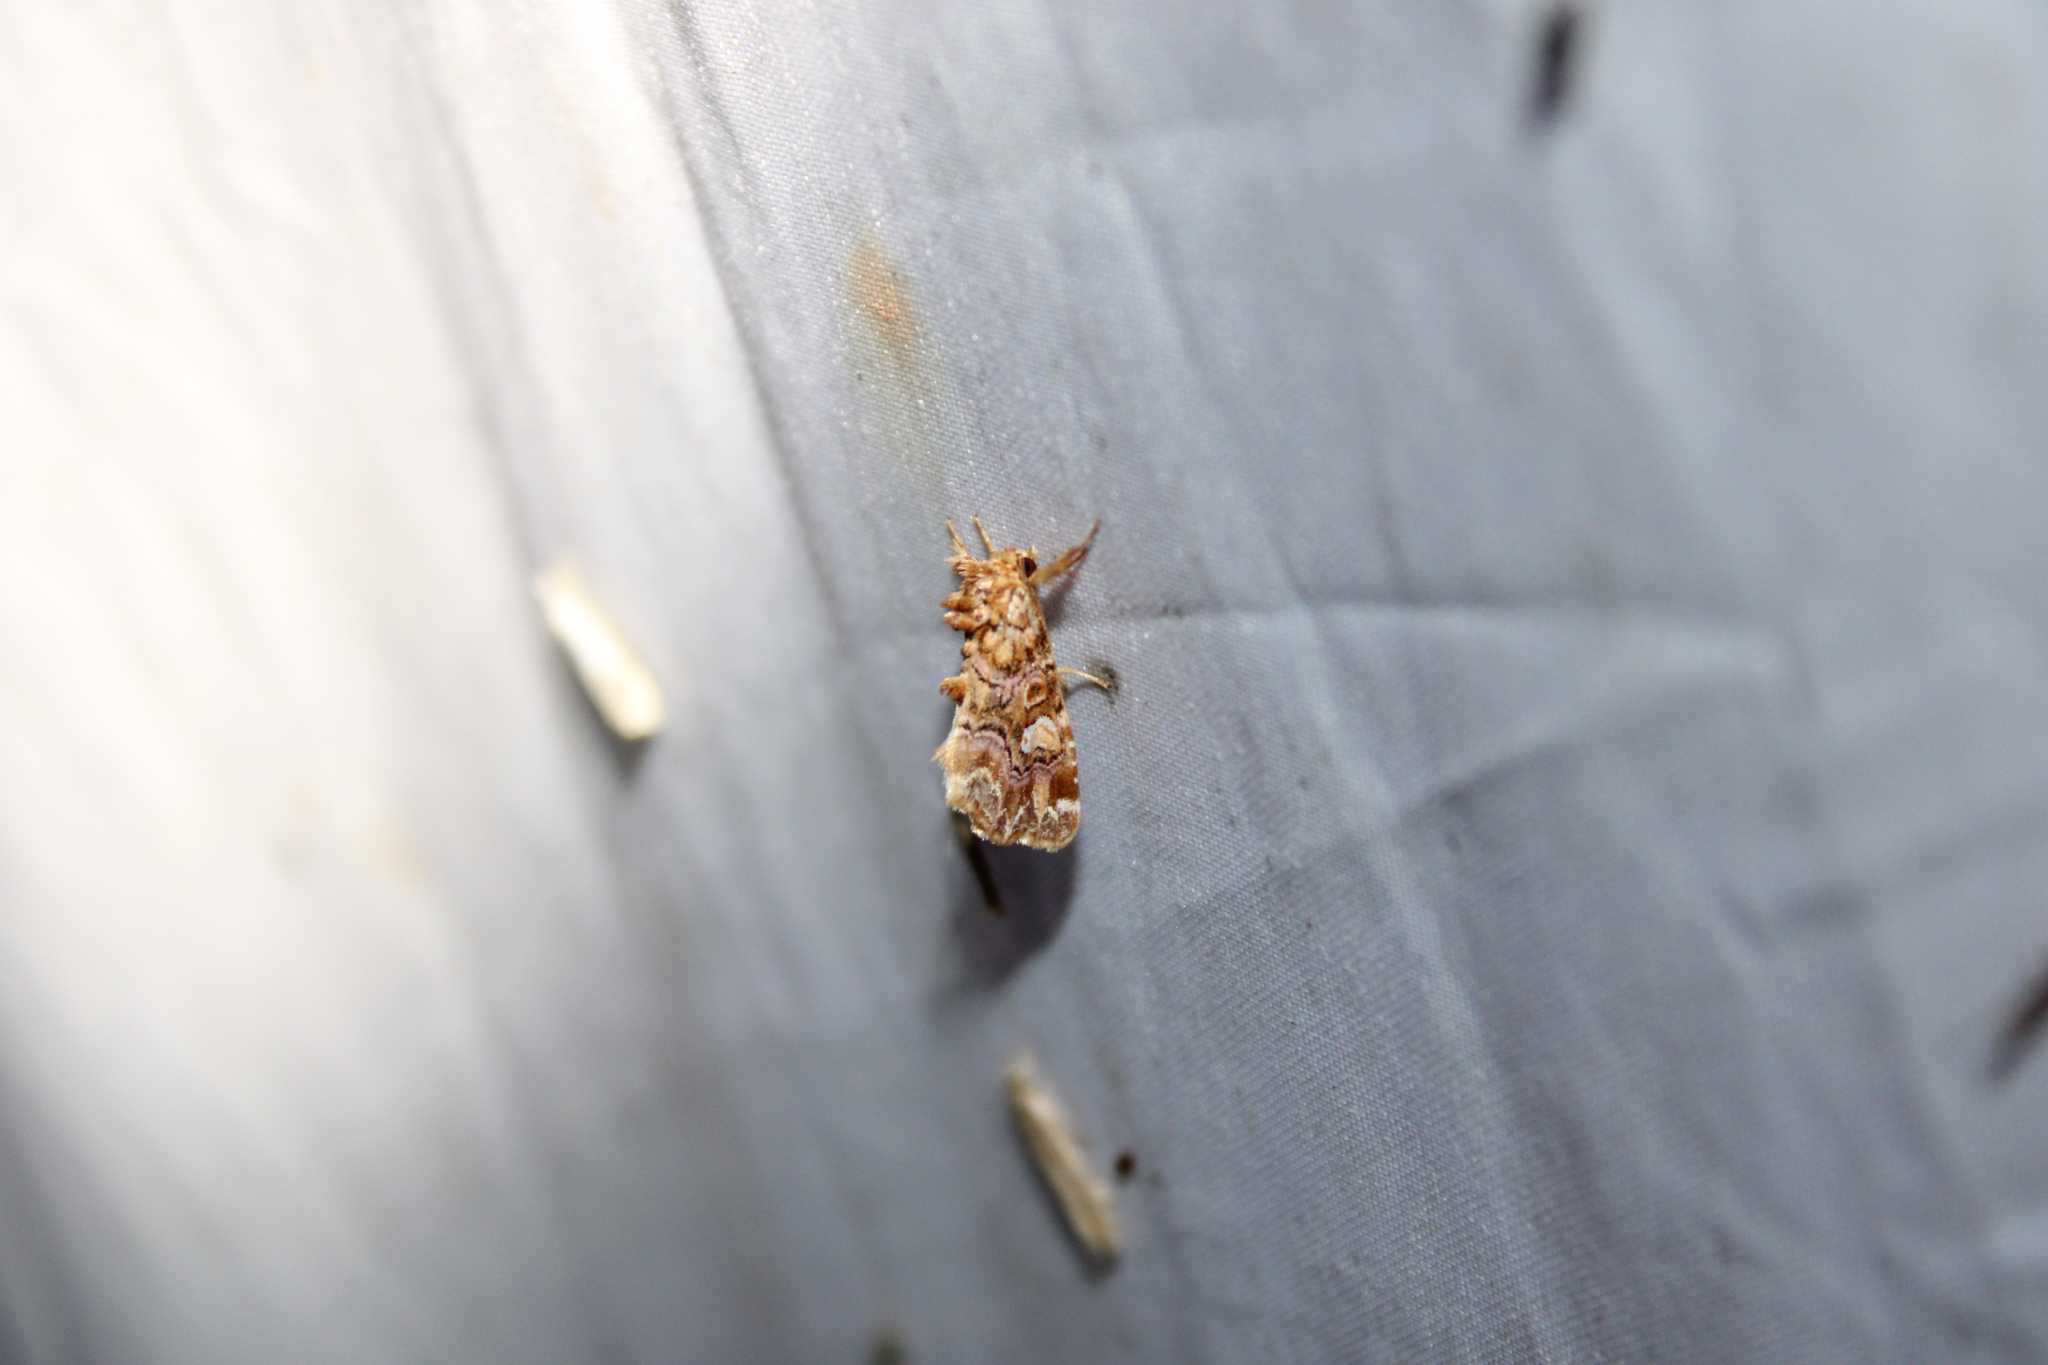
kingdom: Animalia
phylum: Arthropoda
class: Insecta
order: Lepidoptera
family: Noctuidae
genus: Callopistria
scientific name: Callopistria mollissima
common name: Pink-shaded fern moth
